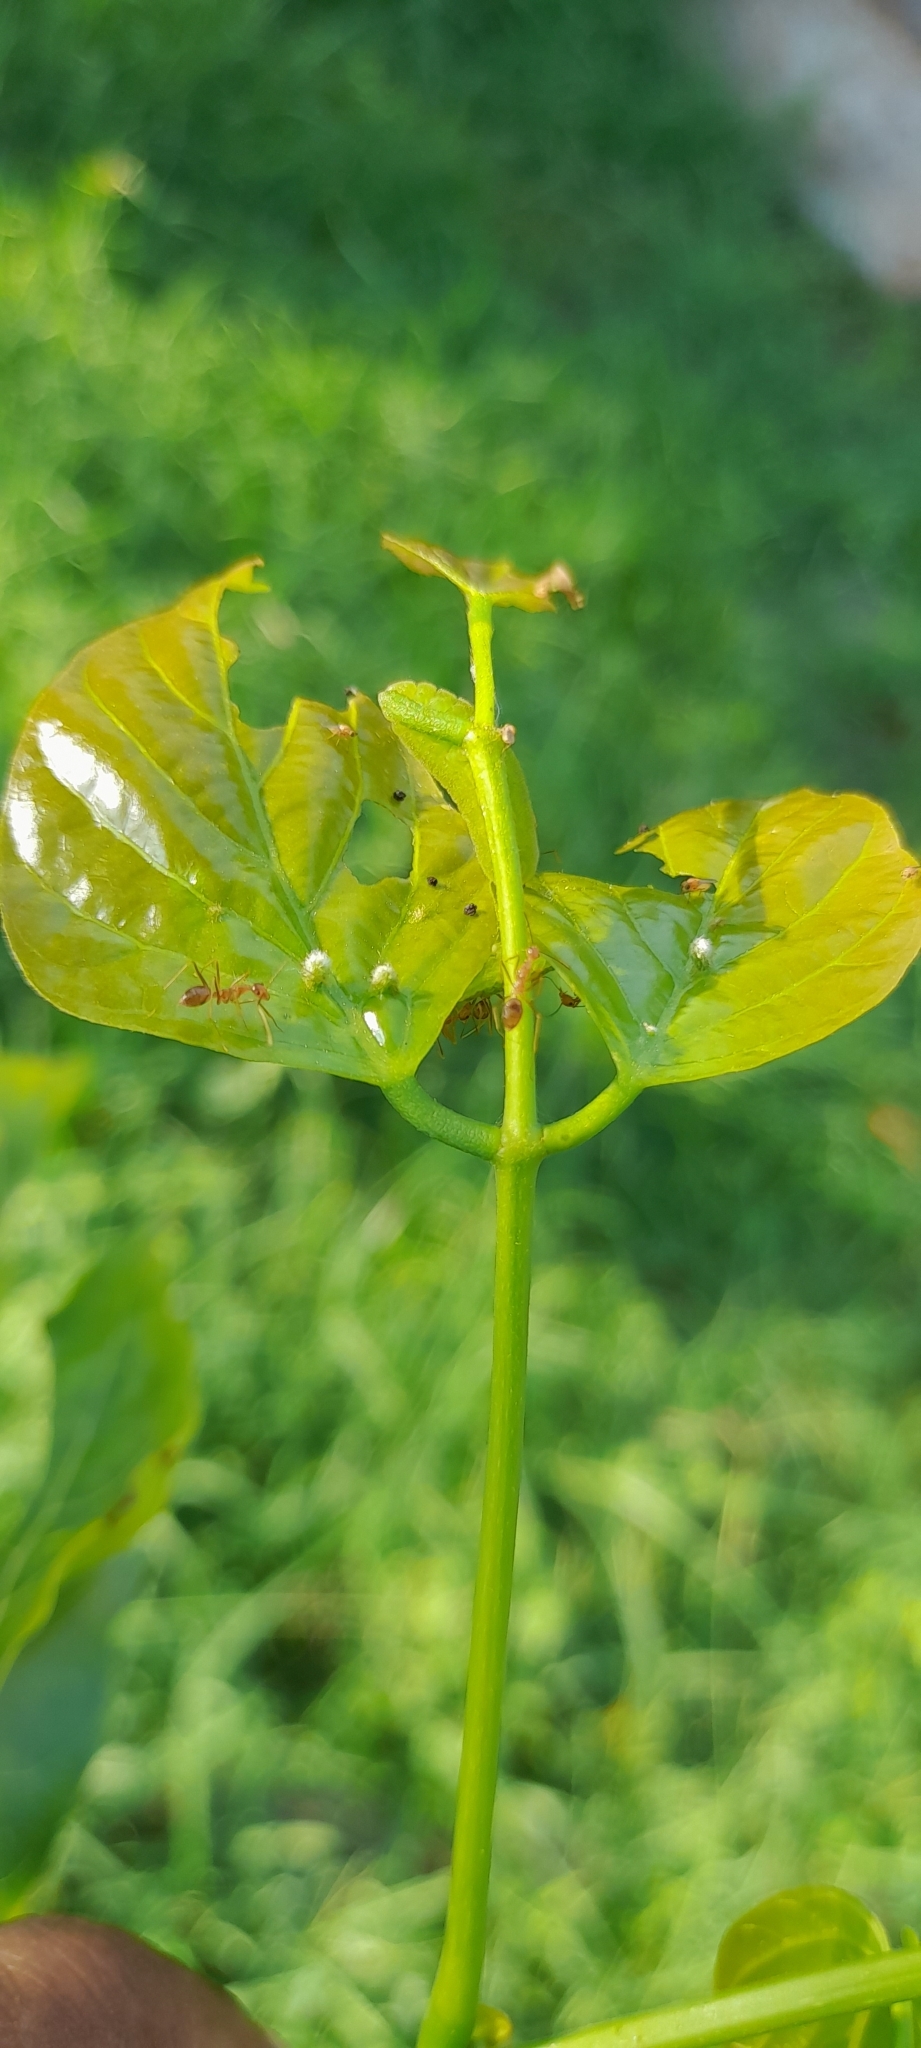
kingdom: Animalia
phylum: Arthropoda
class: Insecta
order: Hymenoptera
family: Formicidae
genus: Anoplolepis
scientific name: Anoplolepis gracilipes
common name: Ant
